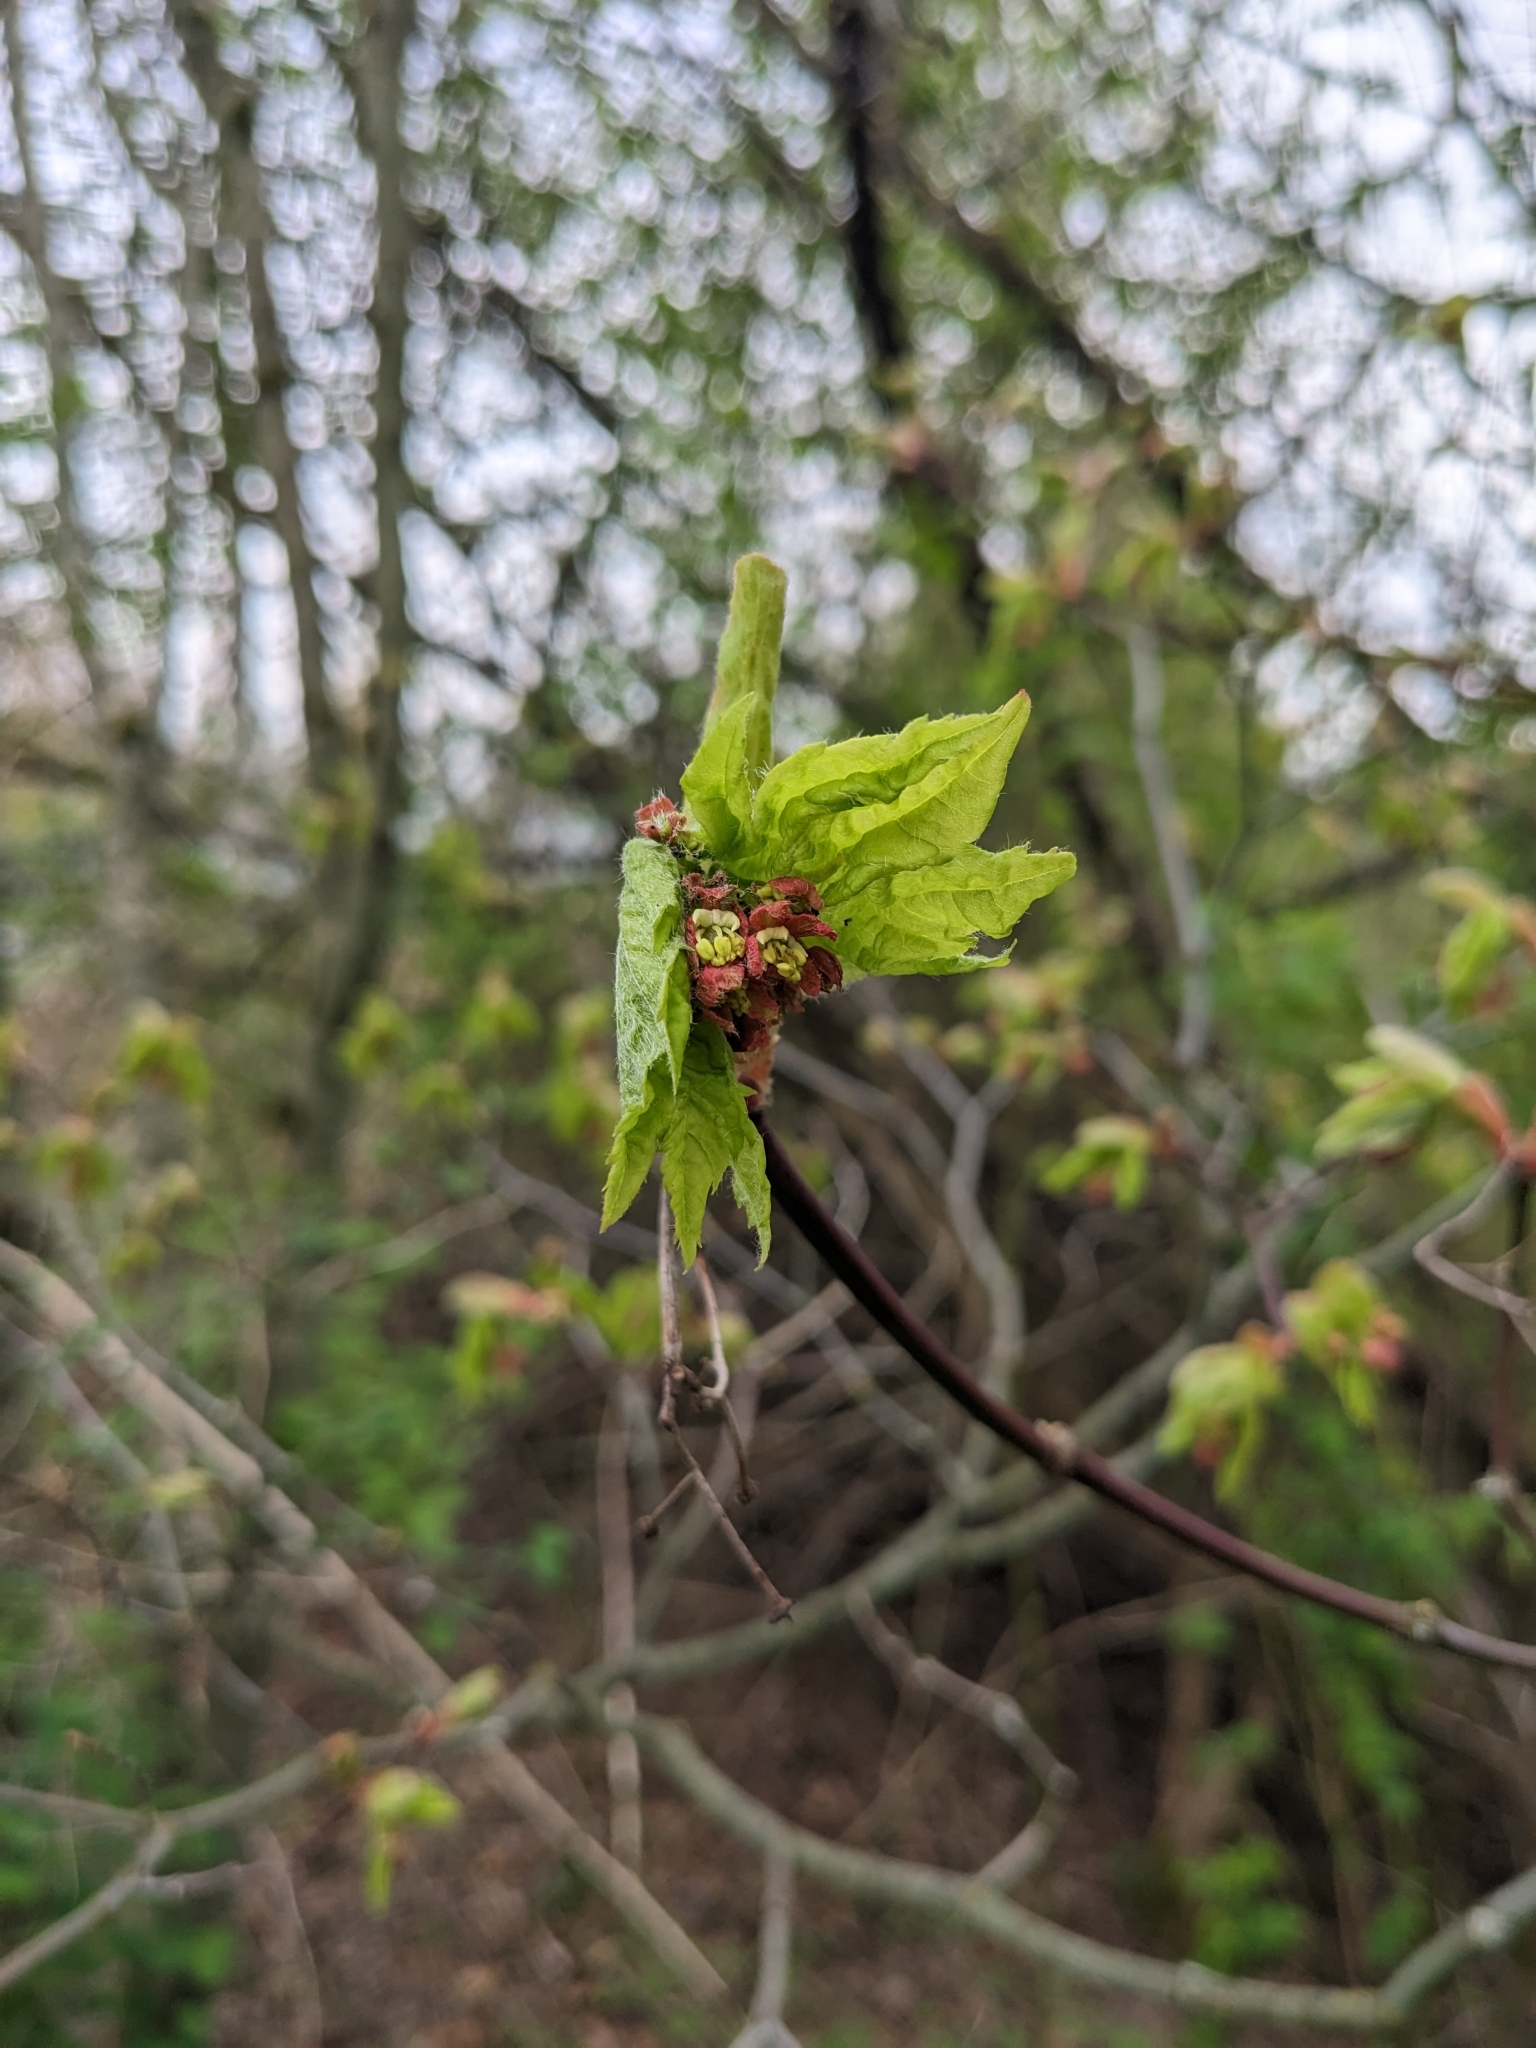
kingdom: Plantae
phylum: Tracheophyta
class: Magnoliopsida
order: Sapindales
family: Sapindaceae
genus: Acer
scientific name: Acer circinatum
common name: Vine maple
